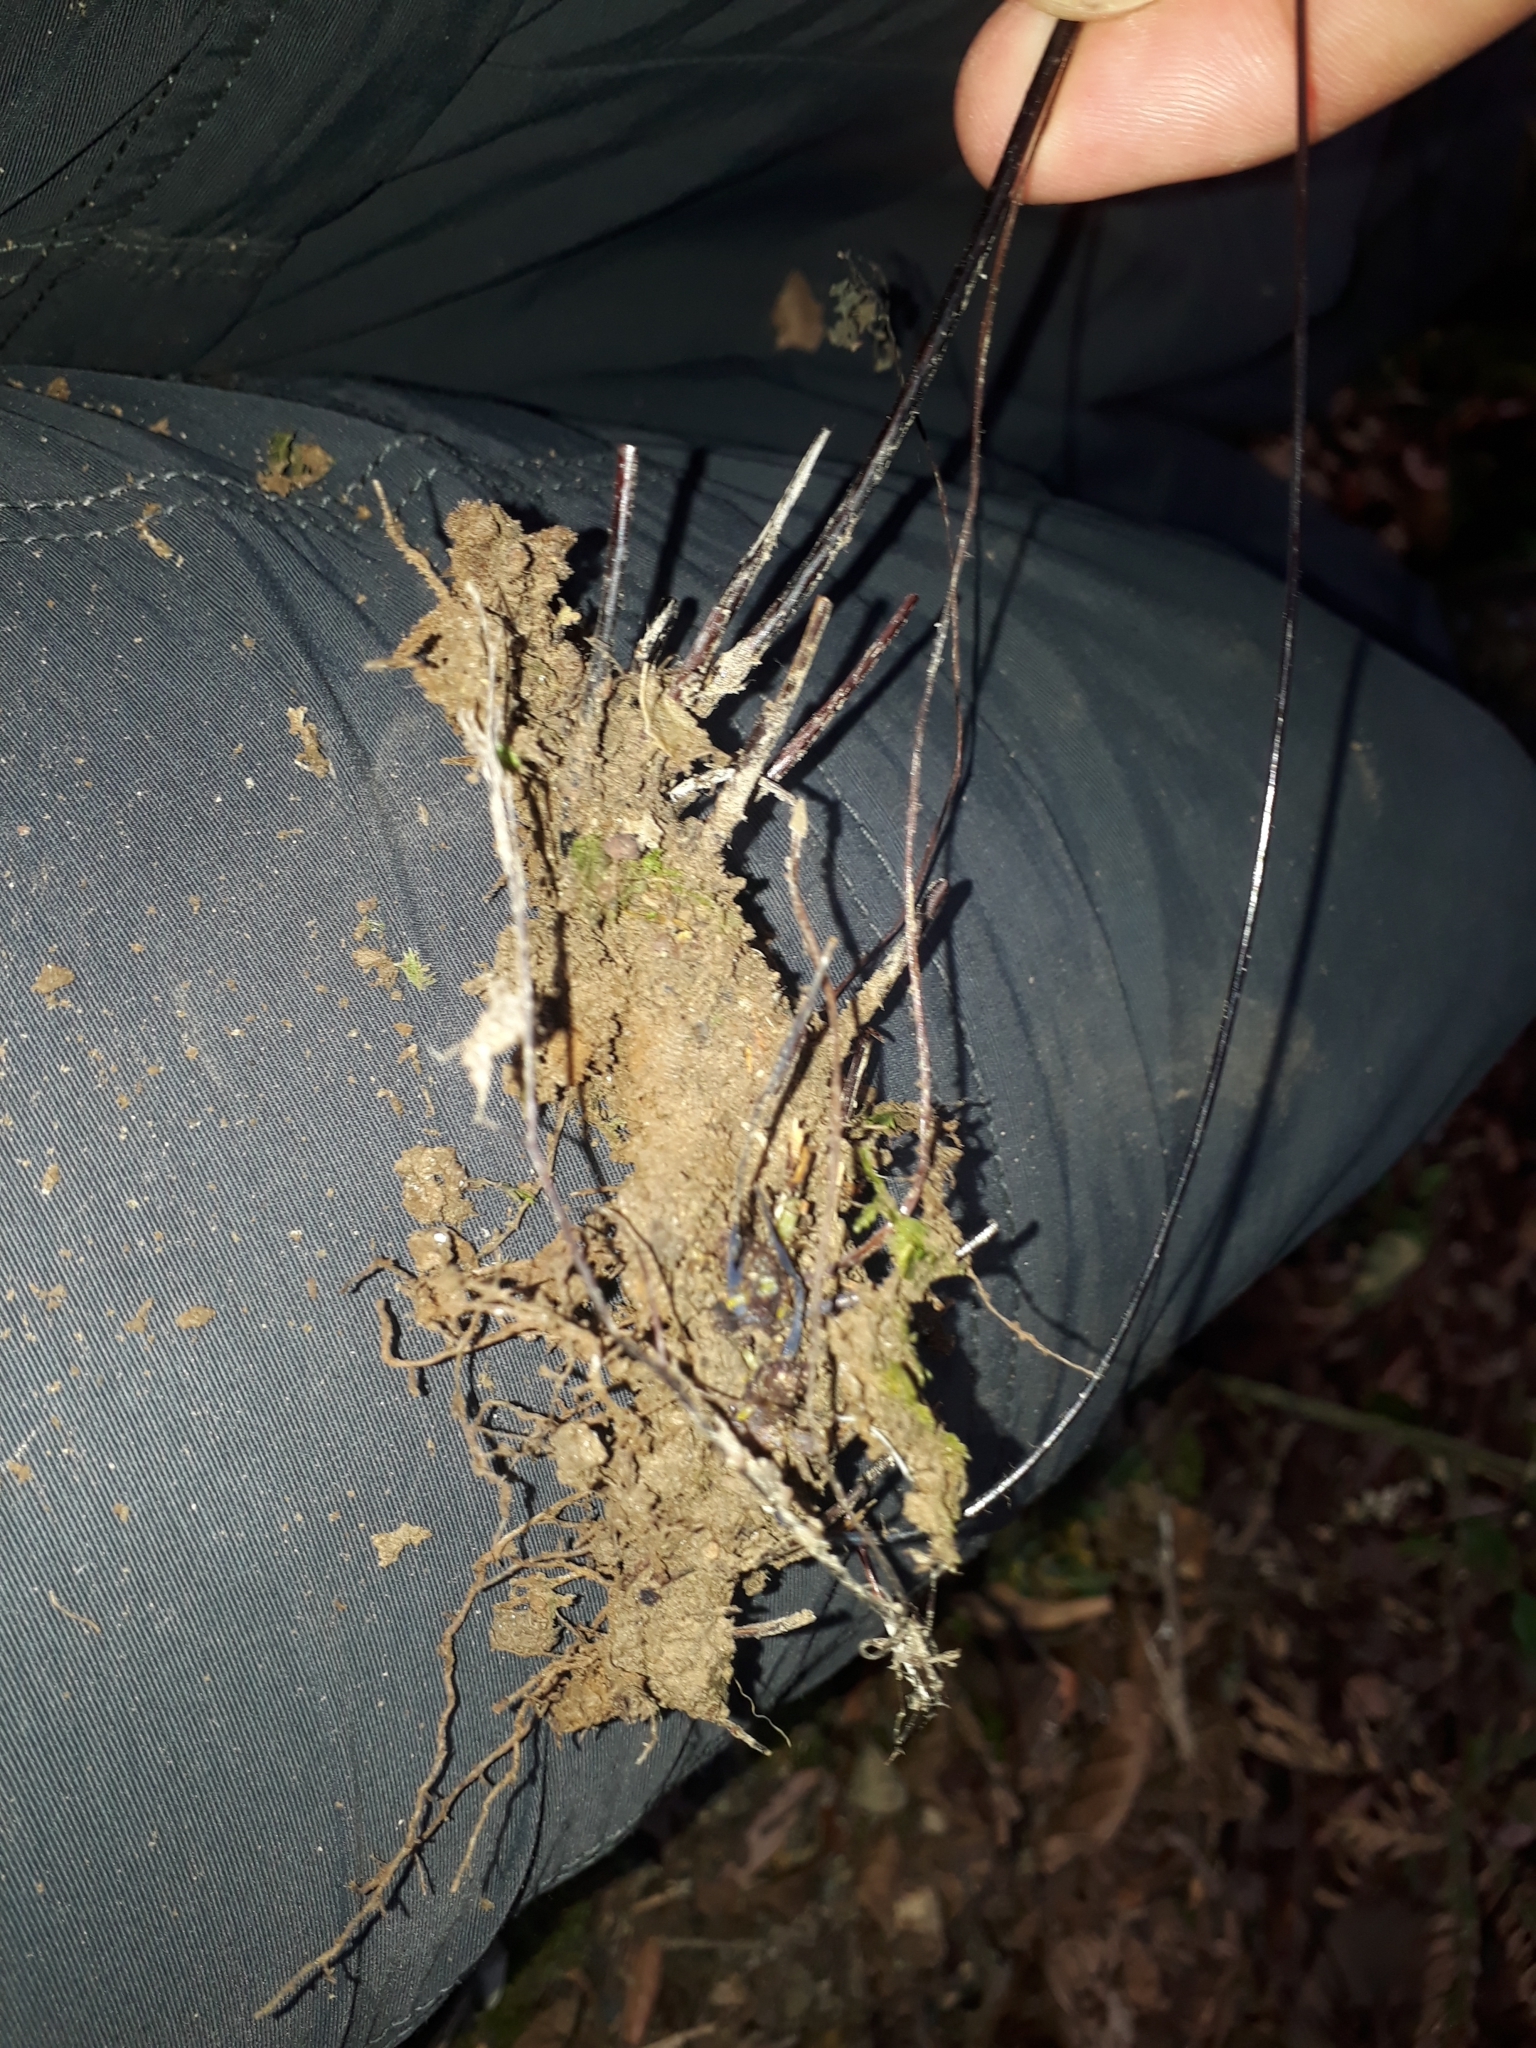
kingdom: Plantae
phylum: Tracheophyta
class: Polypodiopsida
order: Polypodiales
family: Pteridaceae
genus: Adiantum
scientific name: Adiantum raddianum
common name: Delta maidenhair fern
